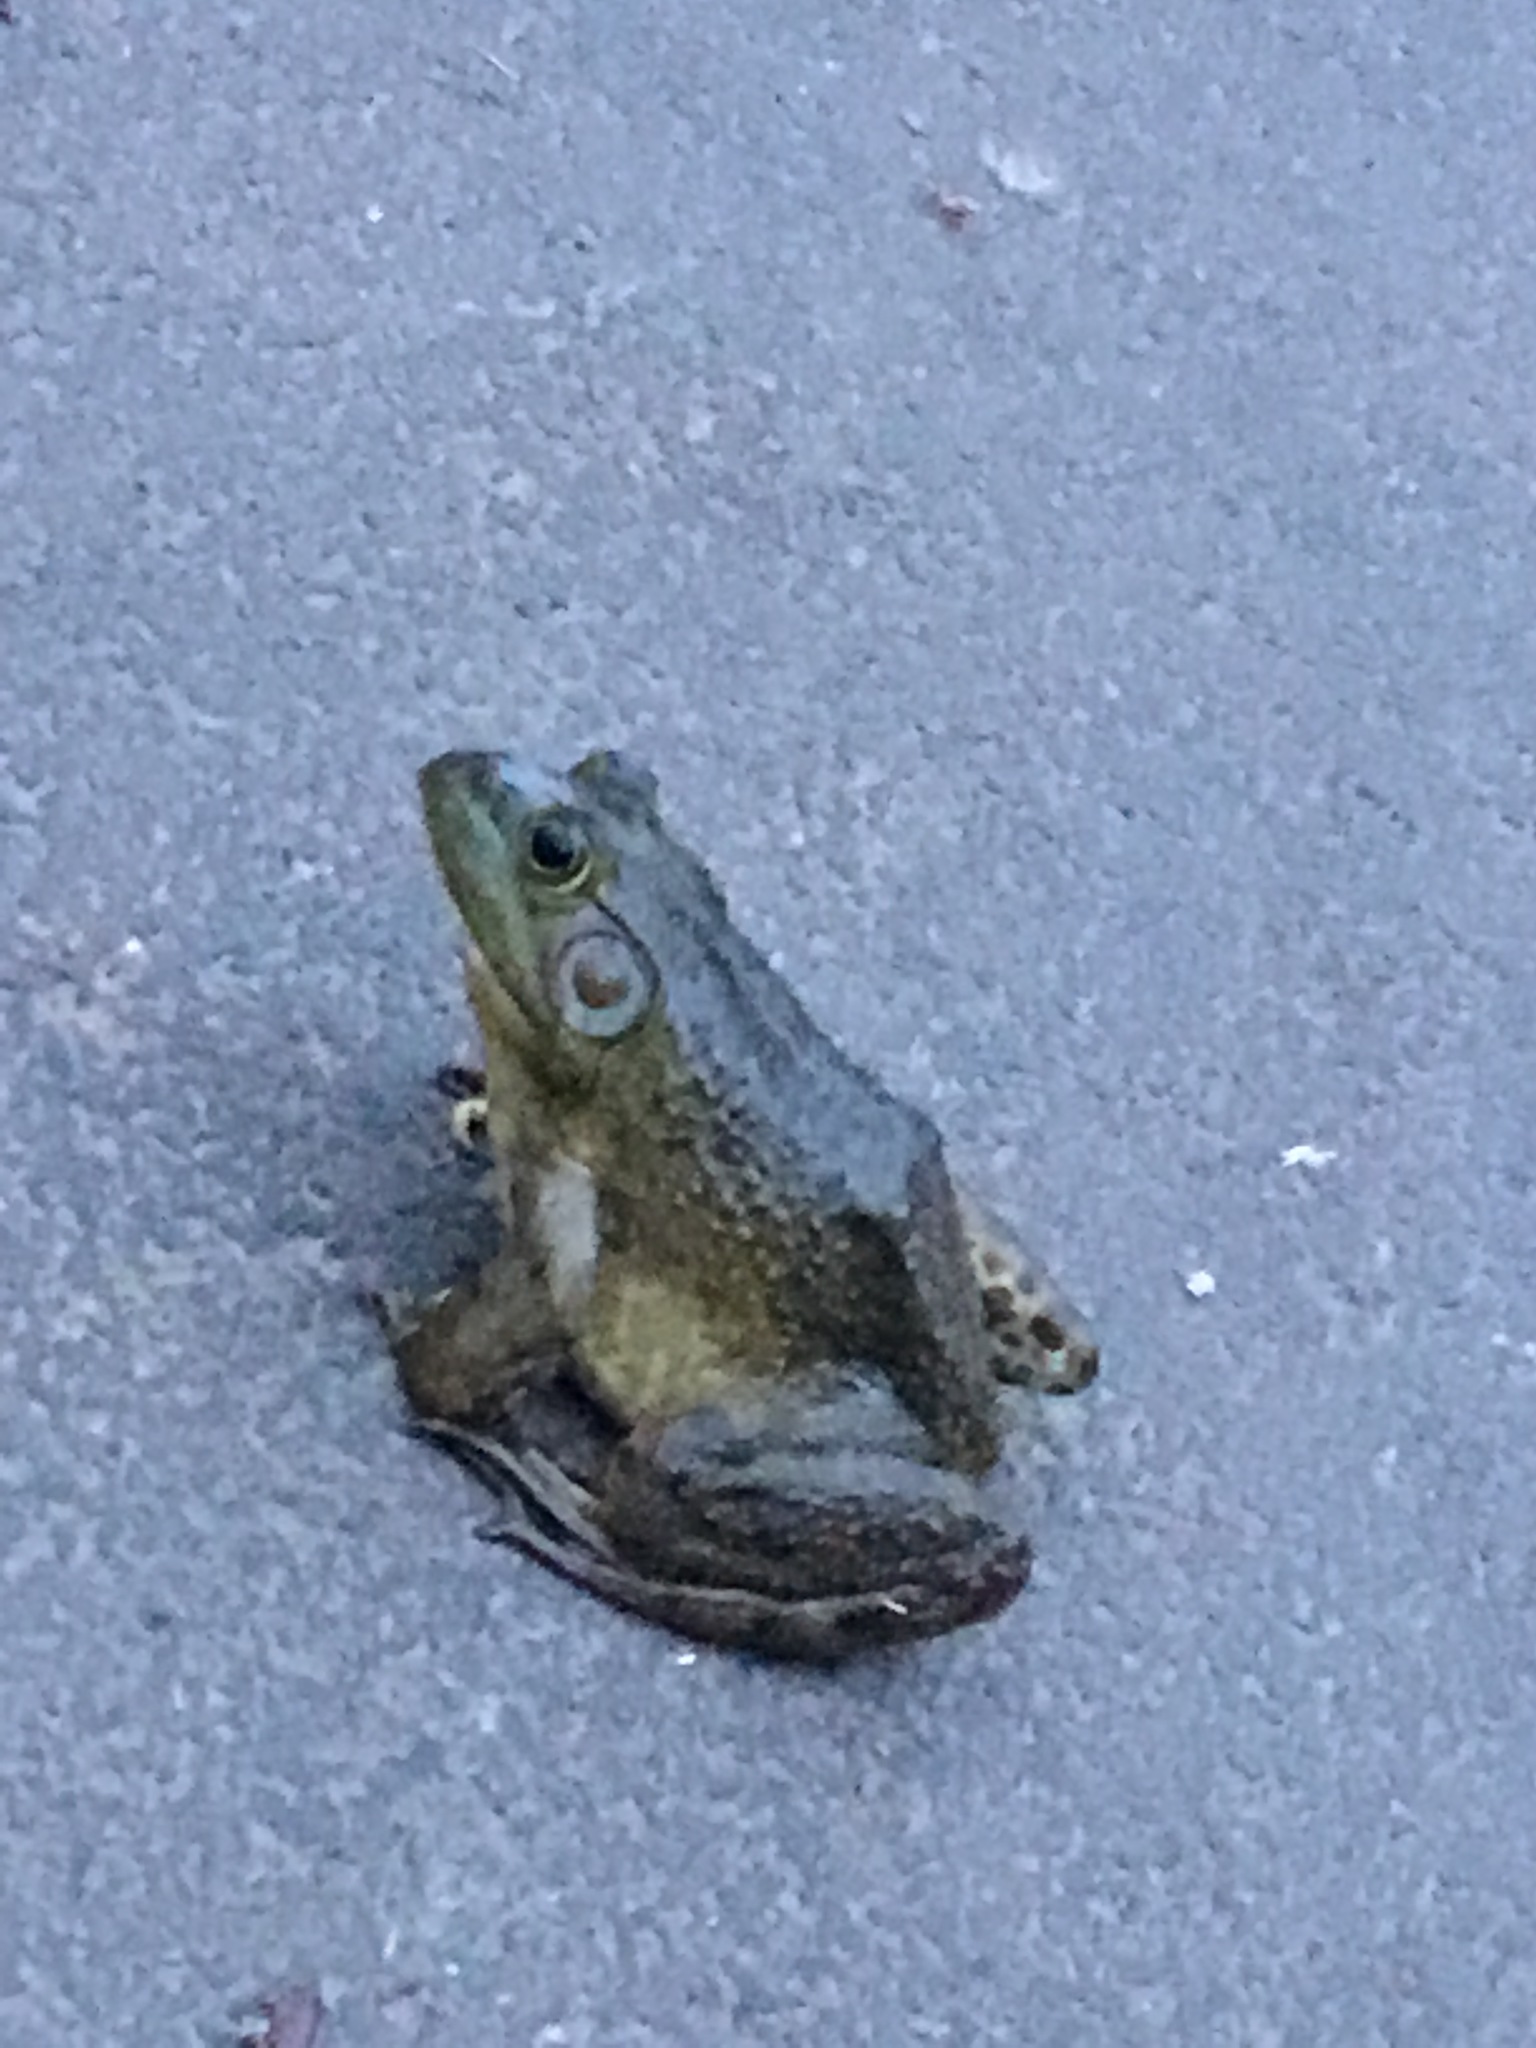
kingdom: Animalia
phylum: Chordata
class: Amphibia
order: Anura
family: Ranidae
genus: Lithobates
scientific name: Lithobates catesbeianus
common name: American bullfrog
